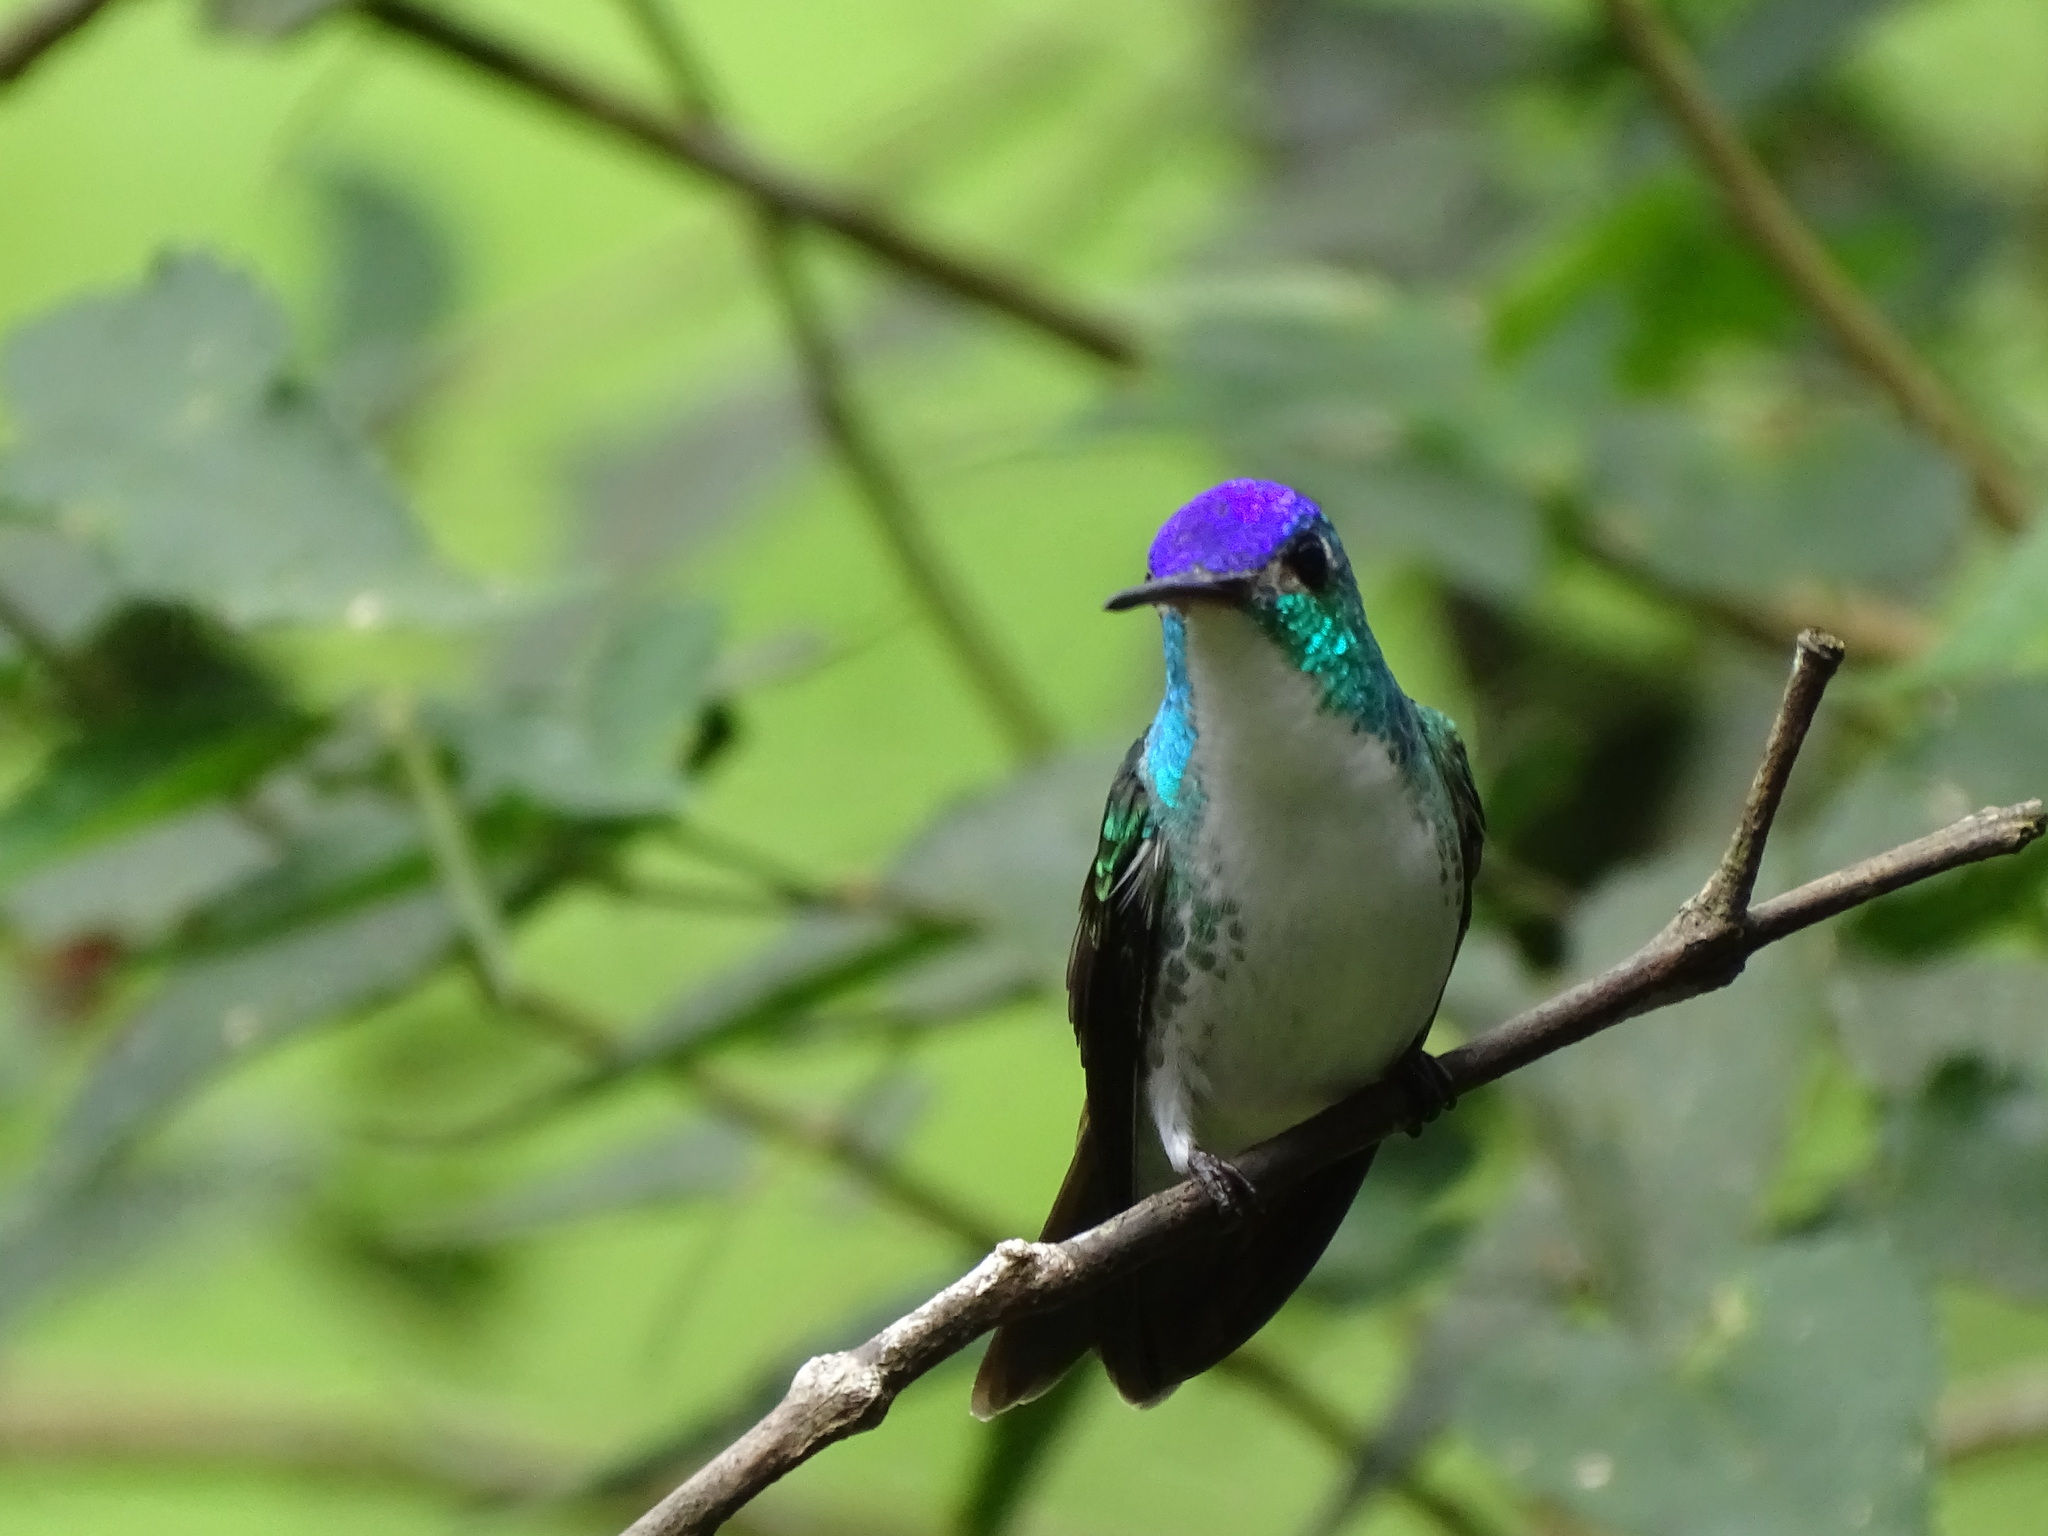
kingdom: Animalia
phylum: Chordata
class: Aves
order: Apodiformes
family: Trochilidae
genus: Uranomitra
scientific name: Uranomitra franciae
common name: Andean emerald
